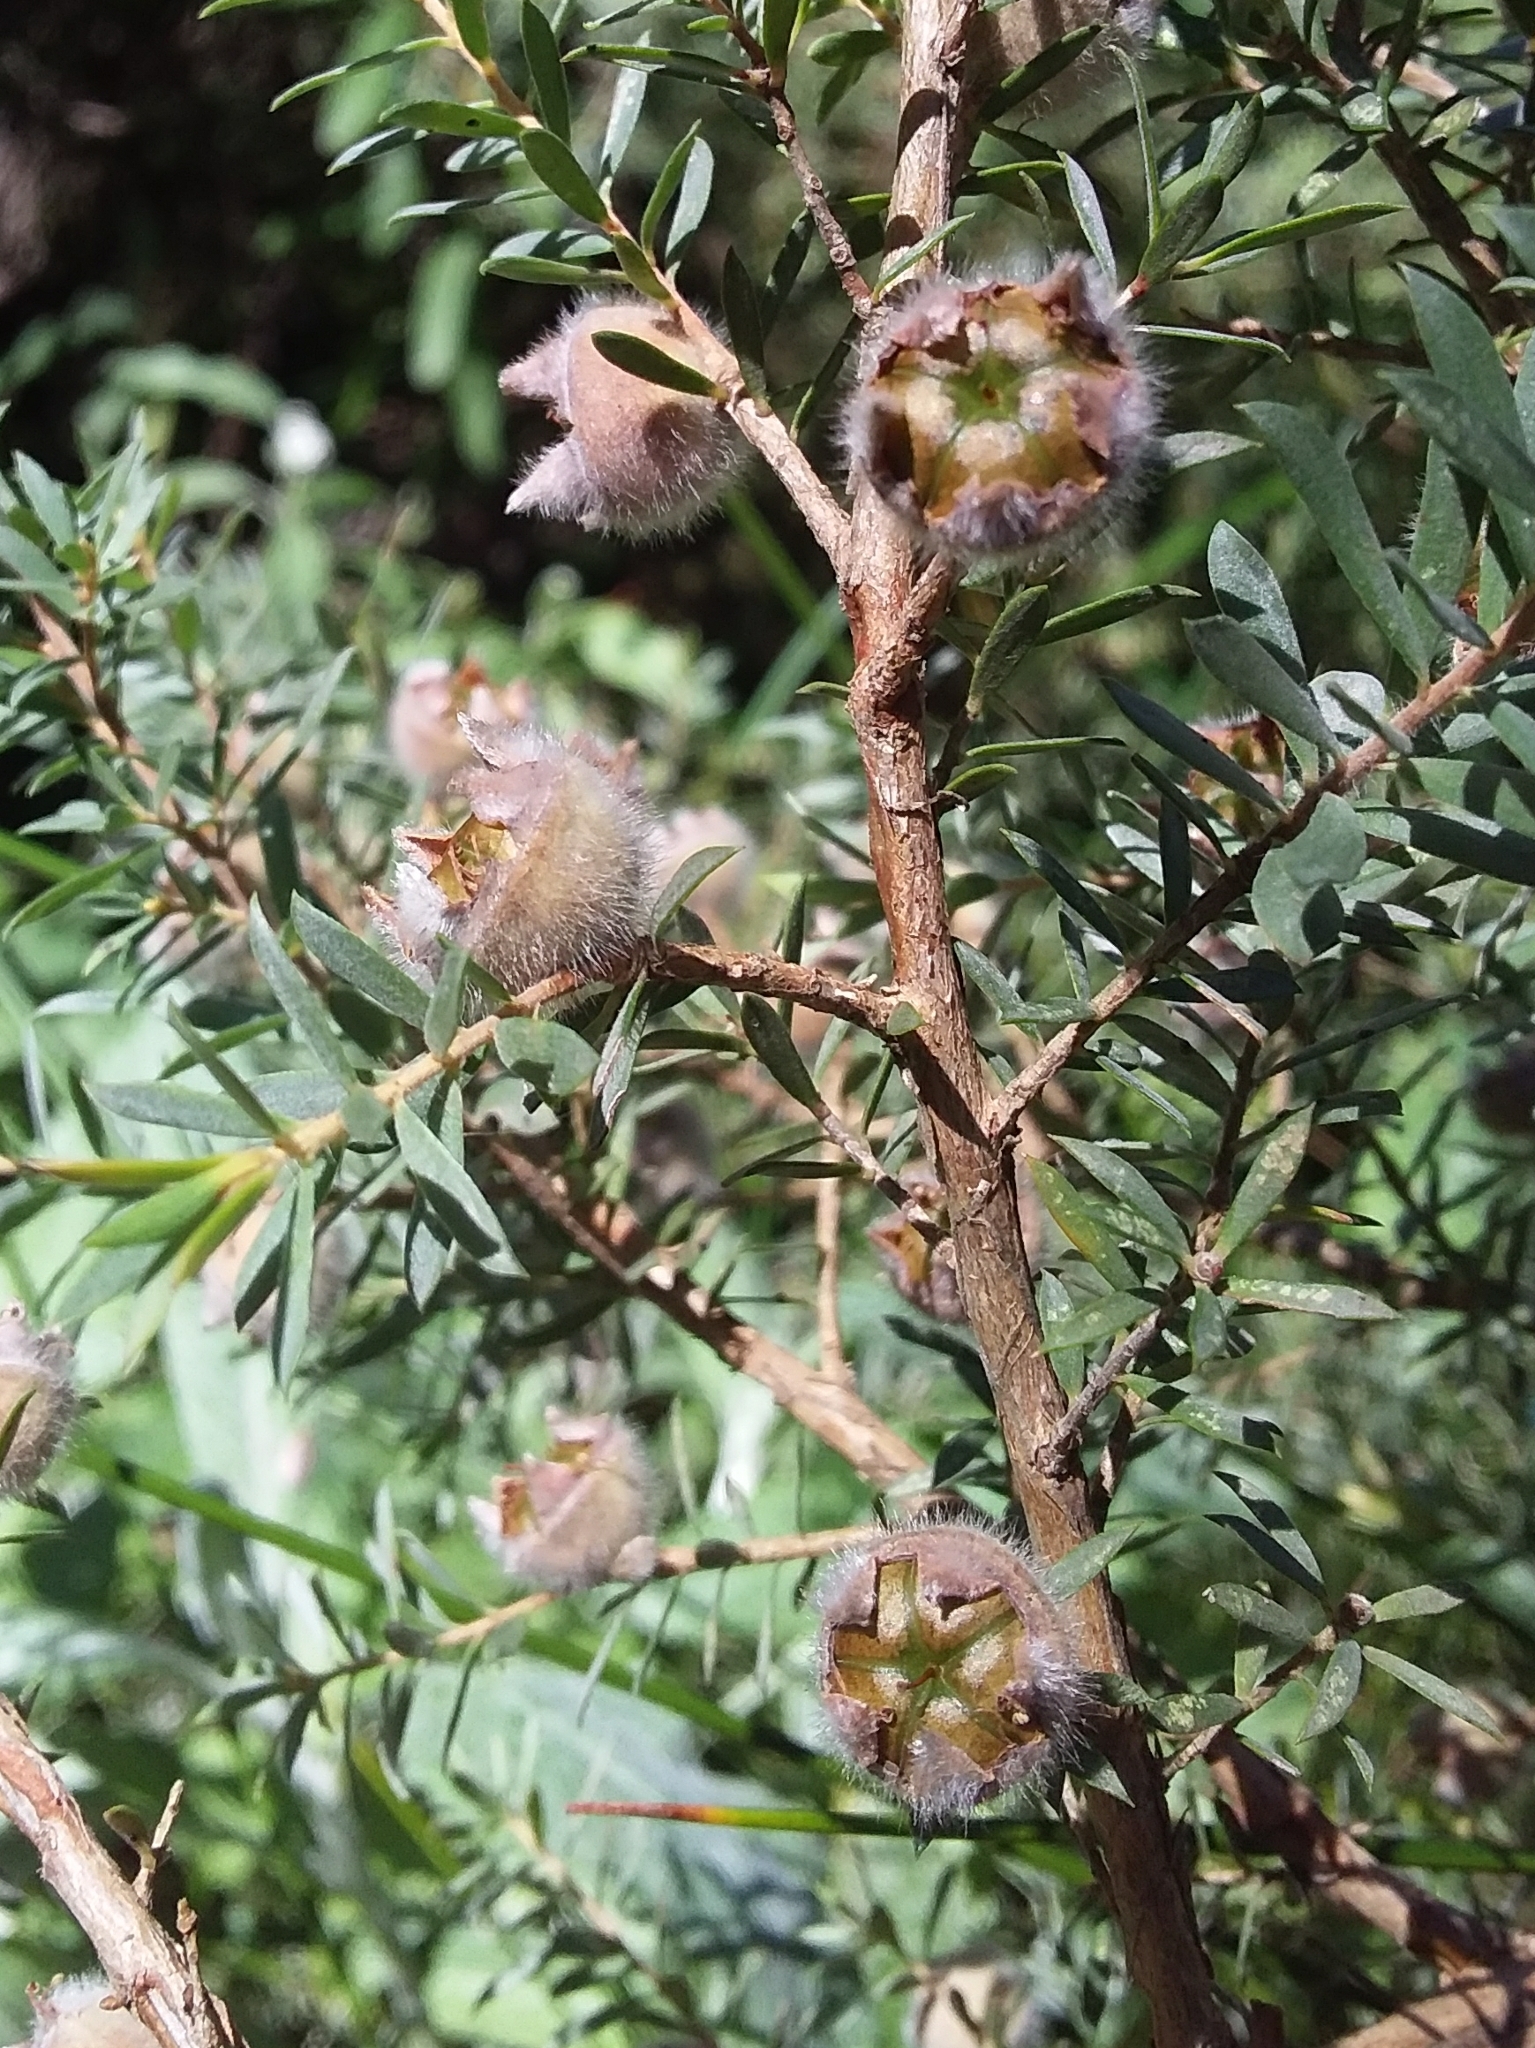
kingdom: Plantae
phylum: Tracheophyta
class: Magnoliopsida
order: Myrtales
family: Myrtaceae
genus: Leptospermum
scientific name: Leptospermum lanigerum
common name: Woolly tea-tree
